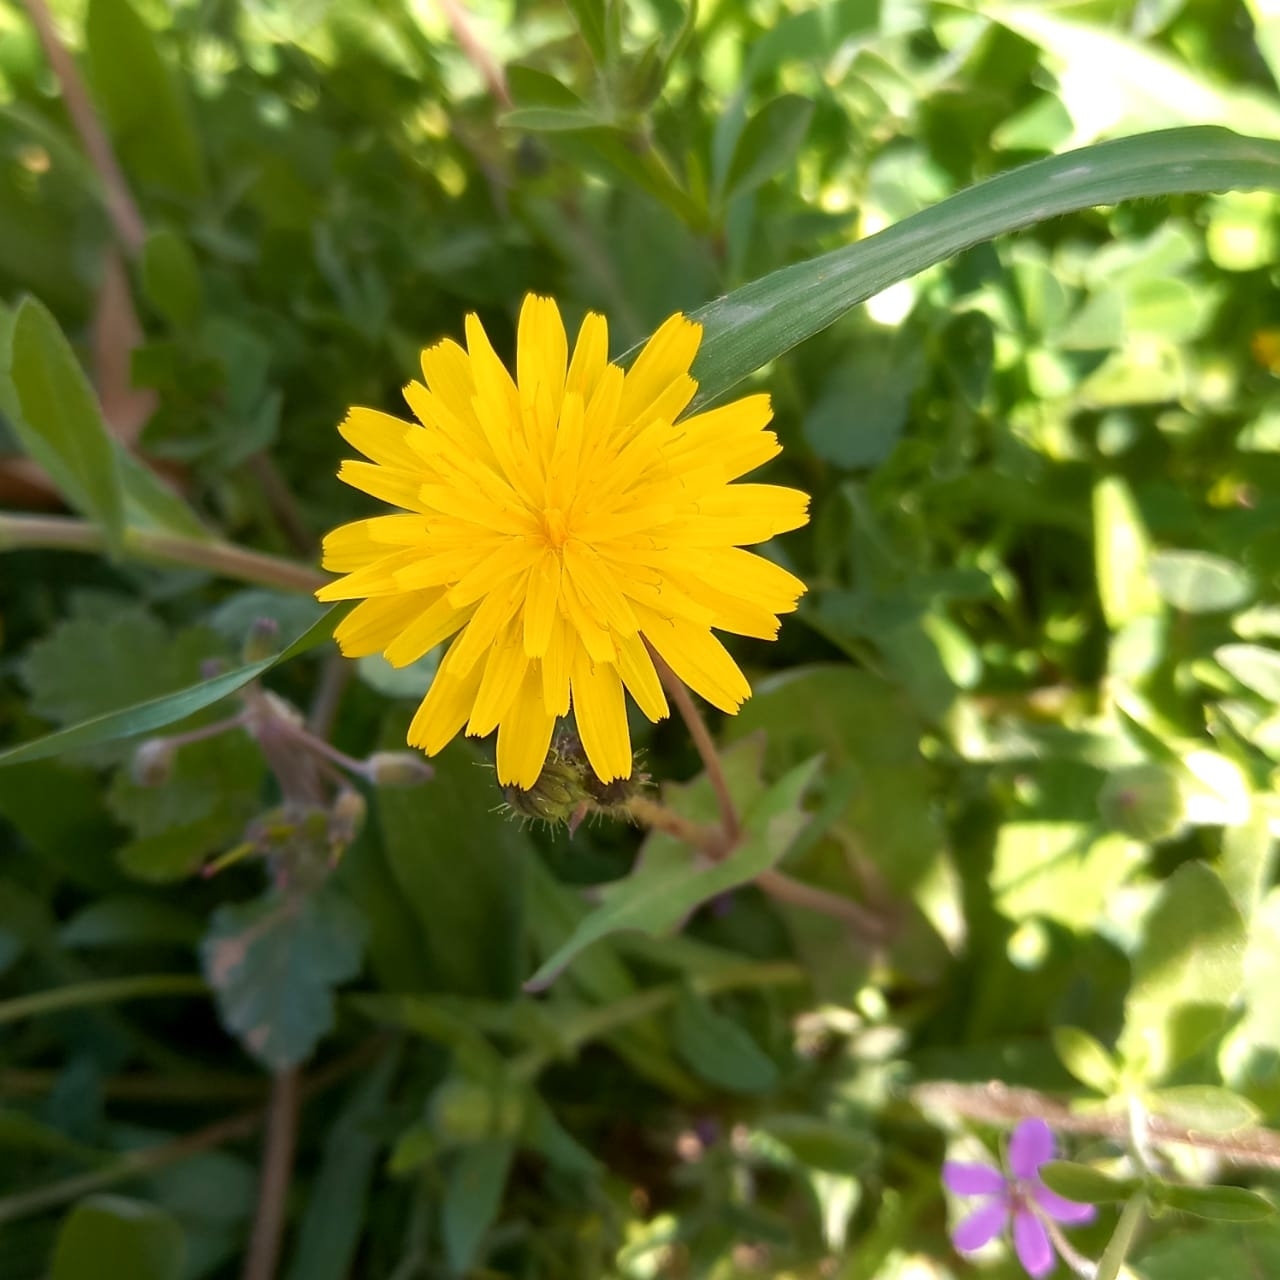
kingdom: Plantae
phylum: Tracheophyta
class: Magnoliopsida
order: Asterales
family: Asteraceae
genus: Sonchus
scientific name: Sonchus tenerrimus
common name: Clammy sowthistle
